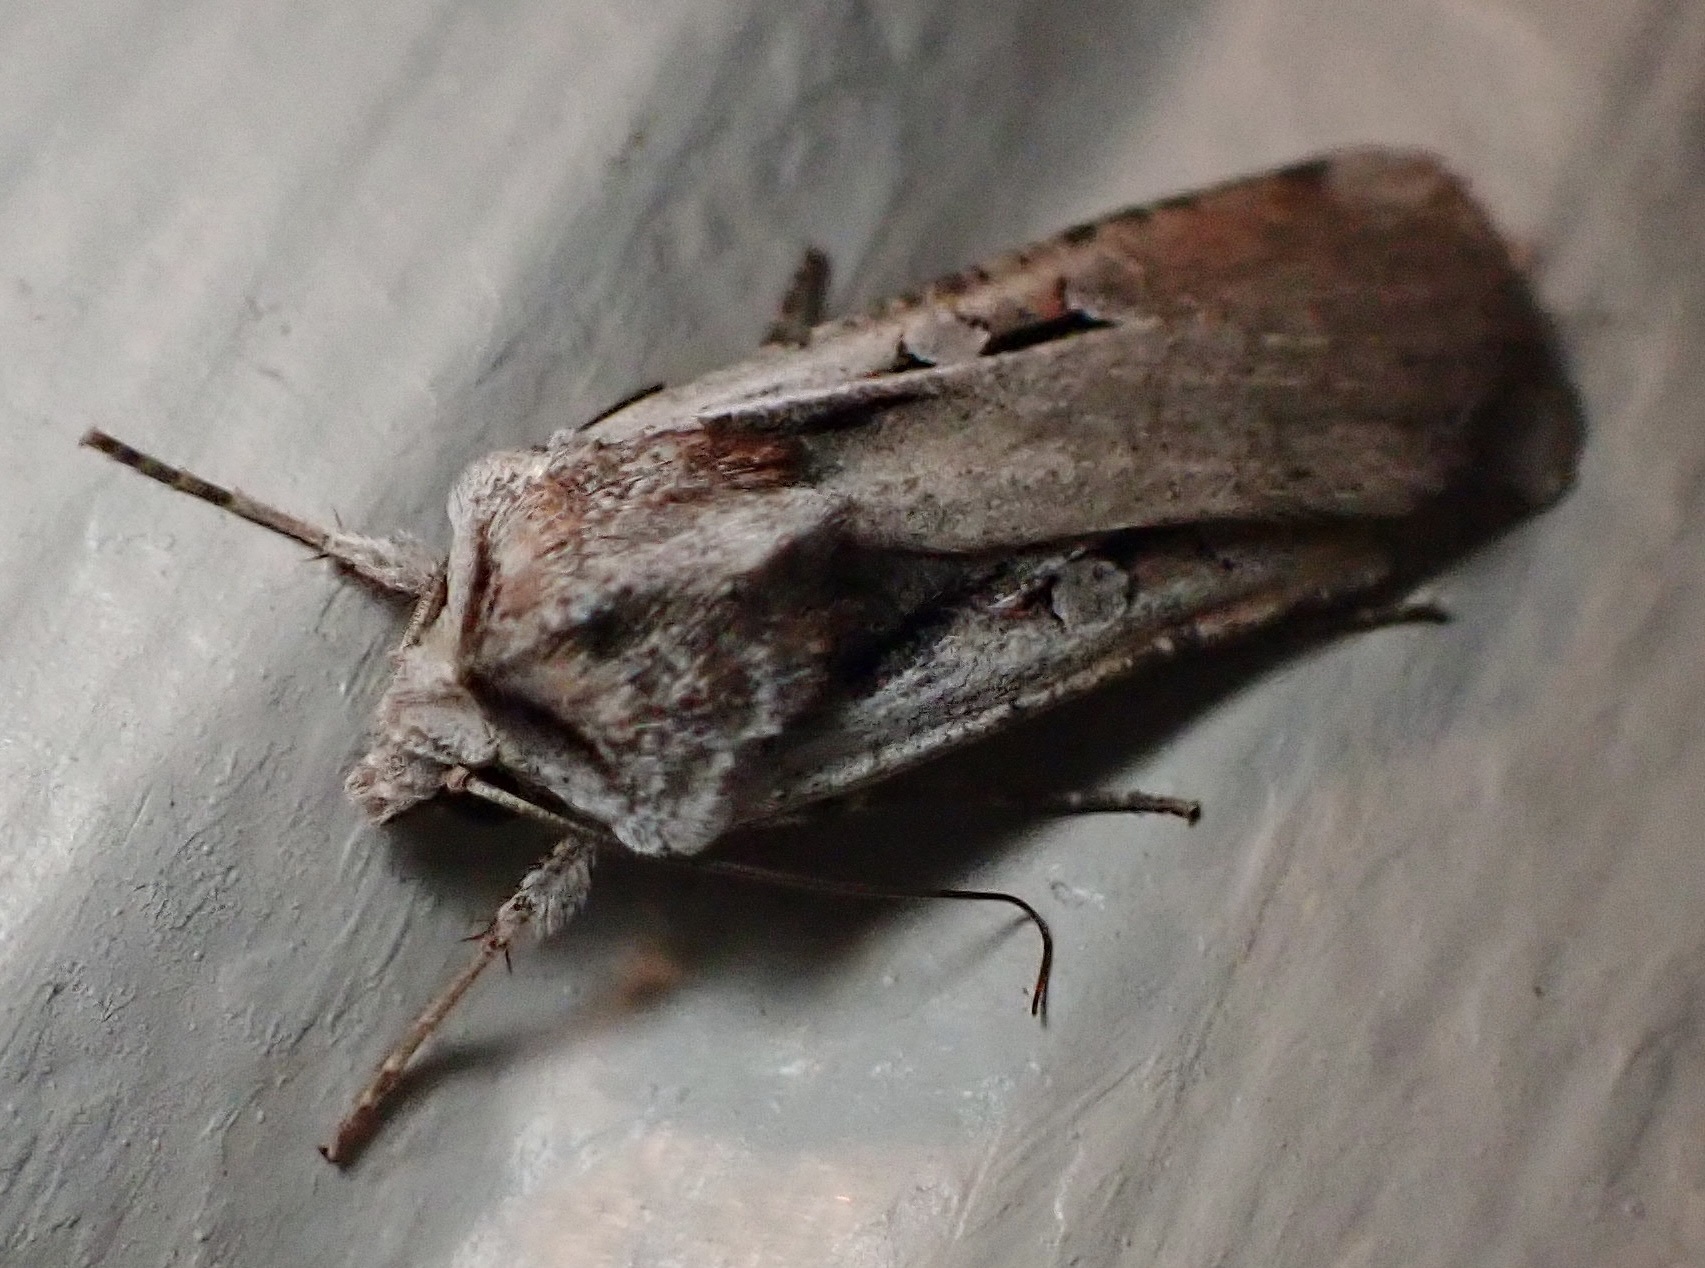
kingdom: Animalia
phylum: Arthropoda
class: Insecta
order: Lepidoptera
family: Noctuidae
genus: Hemieuxoa
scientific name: Hemieuxoa rudens
